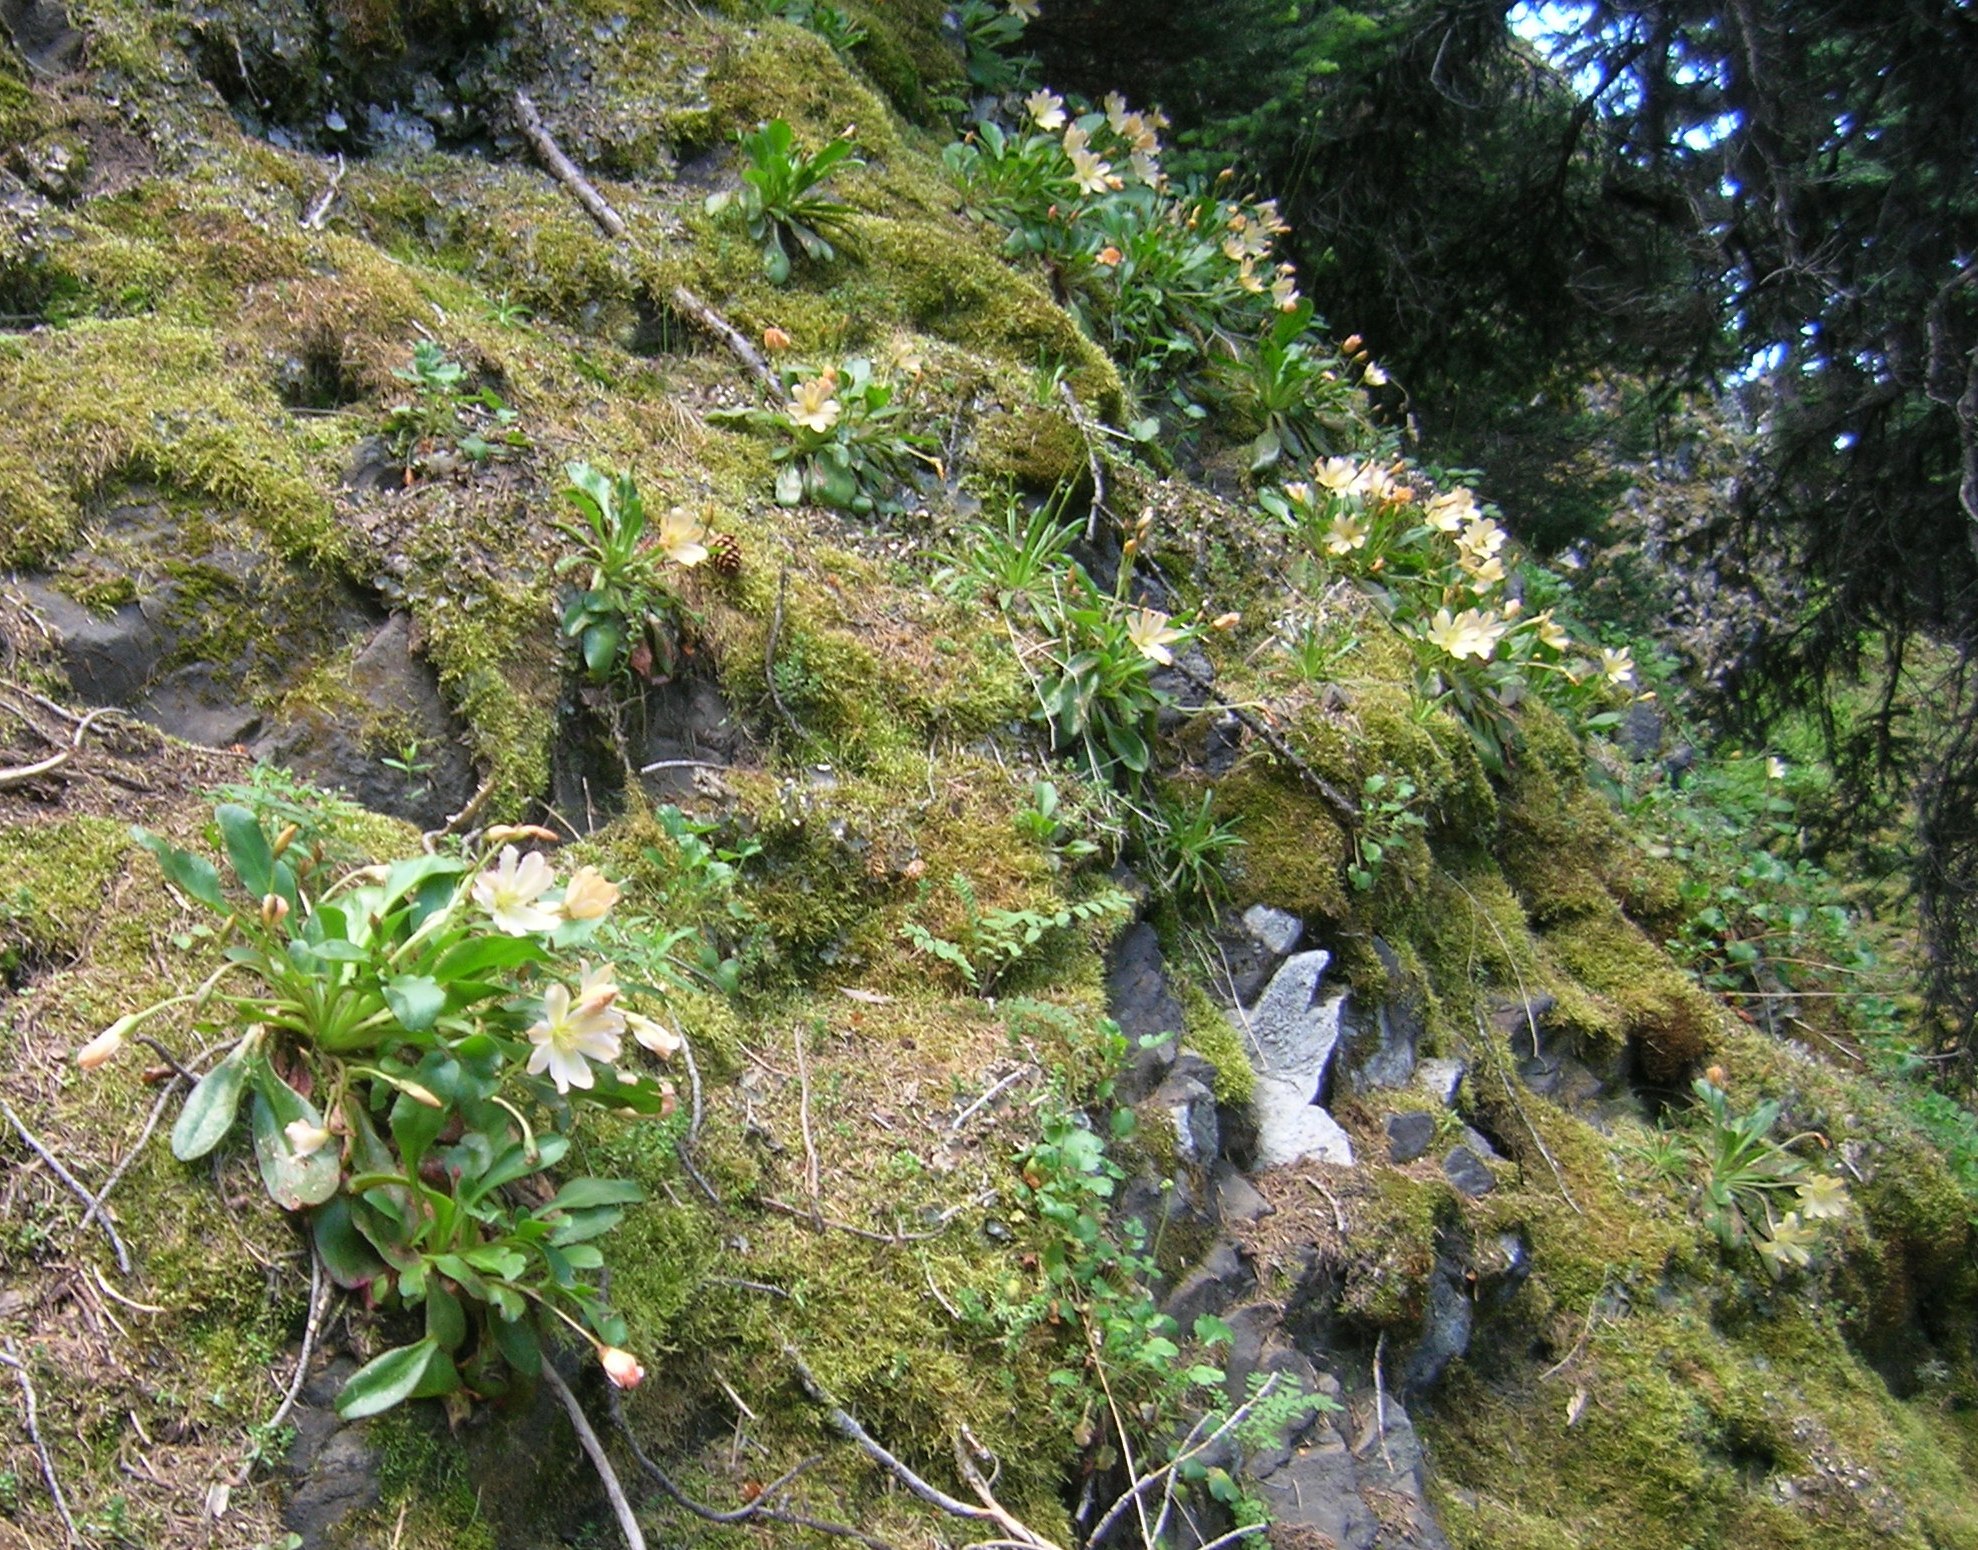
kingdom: Plantae
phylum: Tracheophyta
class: Magnoliopsida
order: Caryophyllales
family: Montiaceae
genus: Lewisiopsis
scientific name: Lewisiopsis tweedyi
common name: Tweedy's pussypaws
